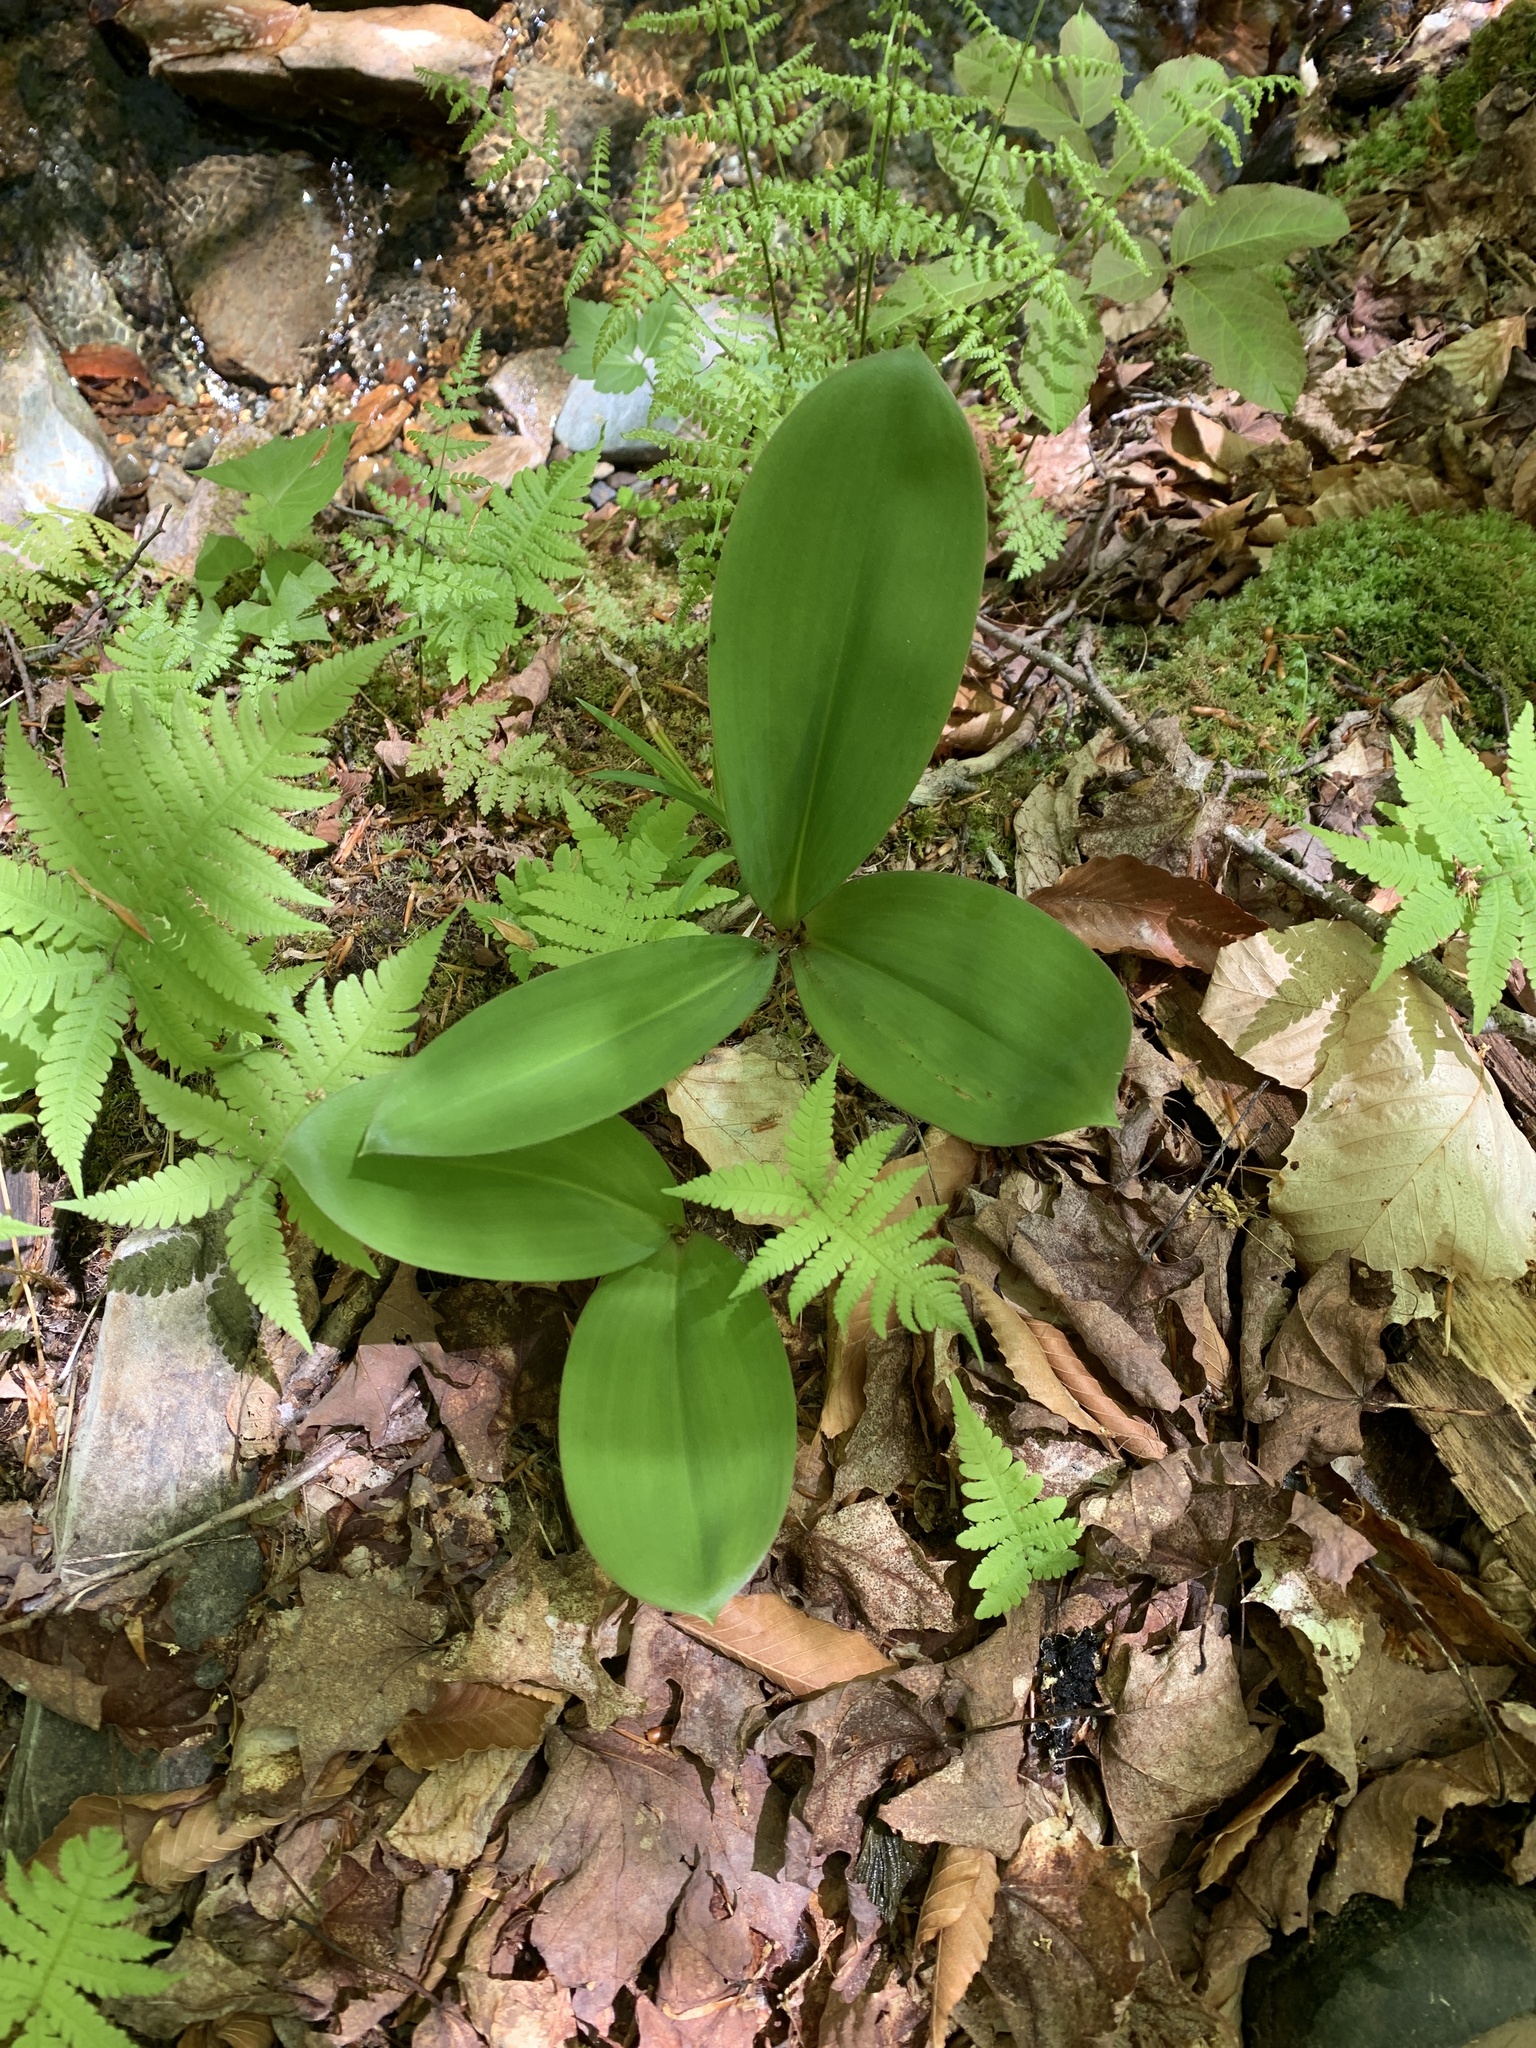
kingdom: Plantae
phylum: Tracheophyta
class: Liliopsida
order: Liliales
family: Liliaceae
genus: Clintonia
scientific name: Clintonia borealis
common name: Yellow clintonia
